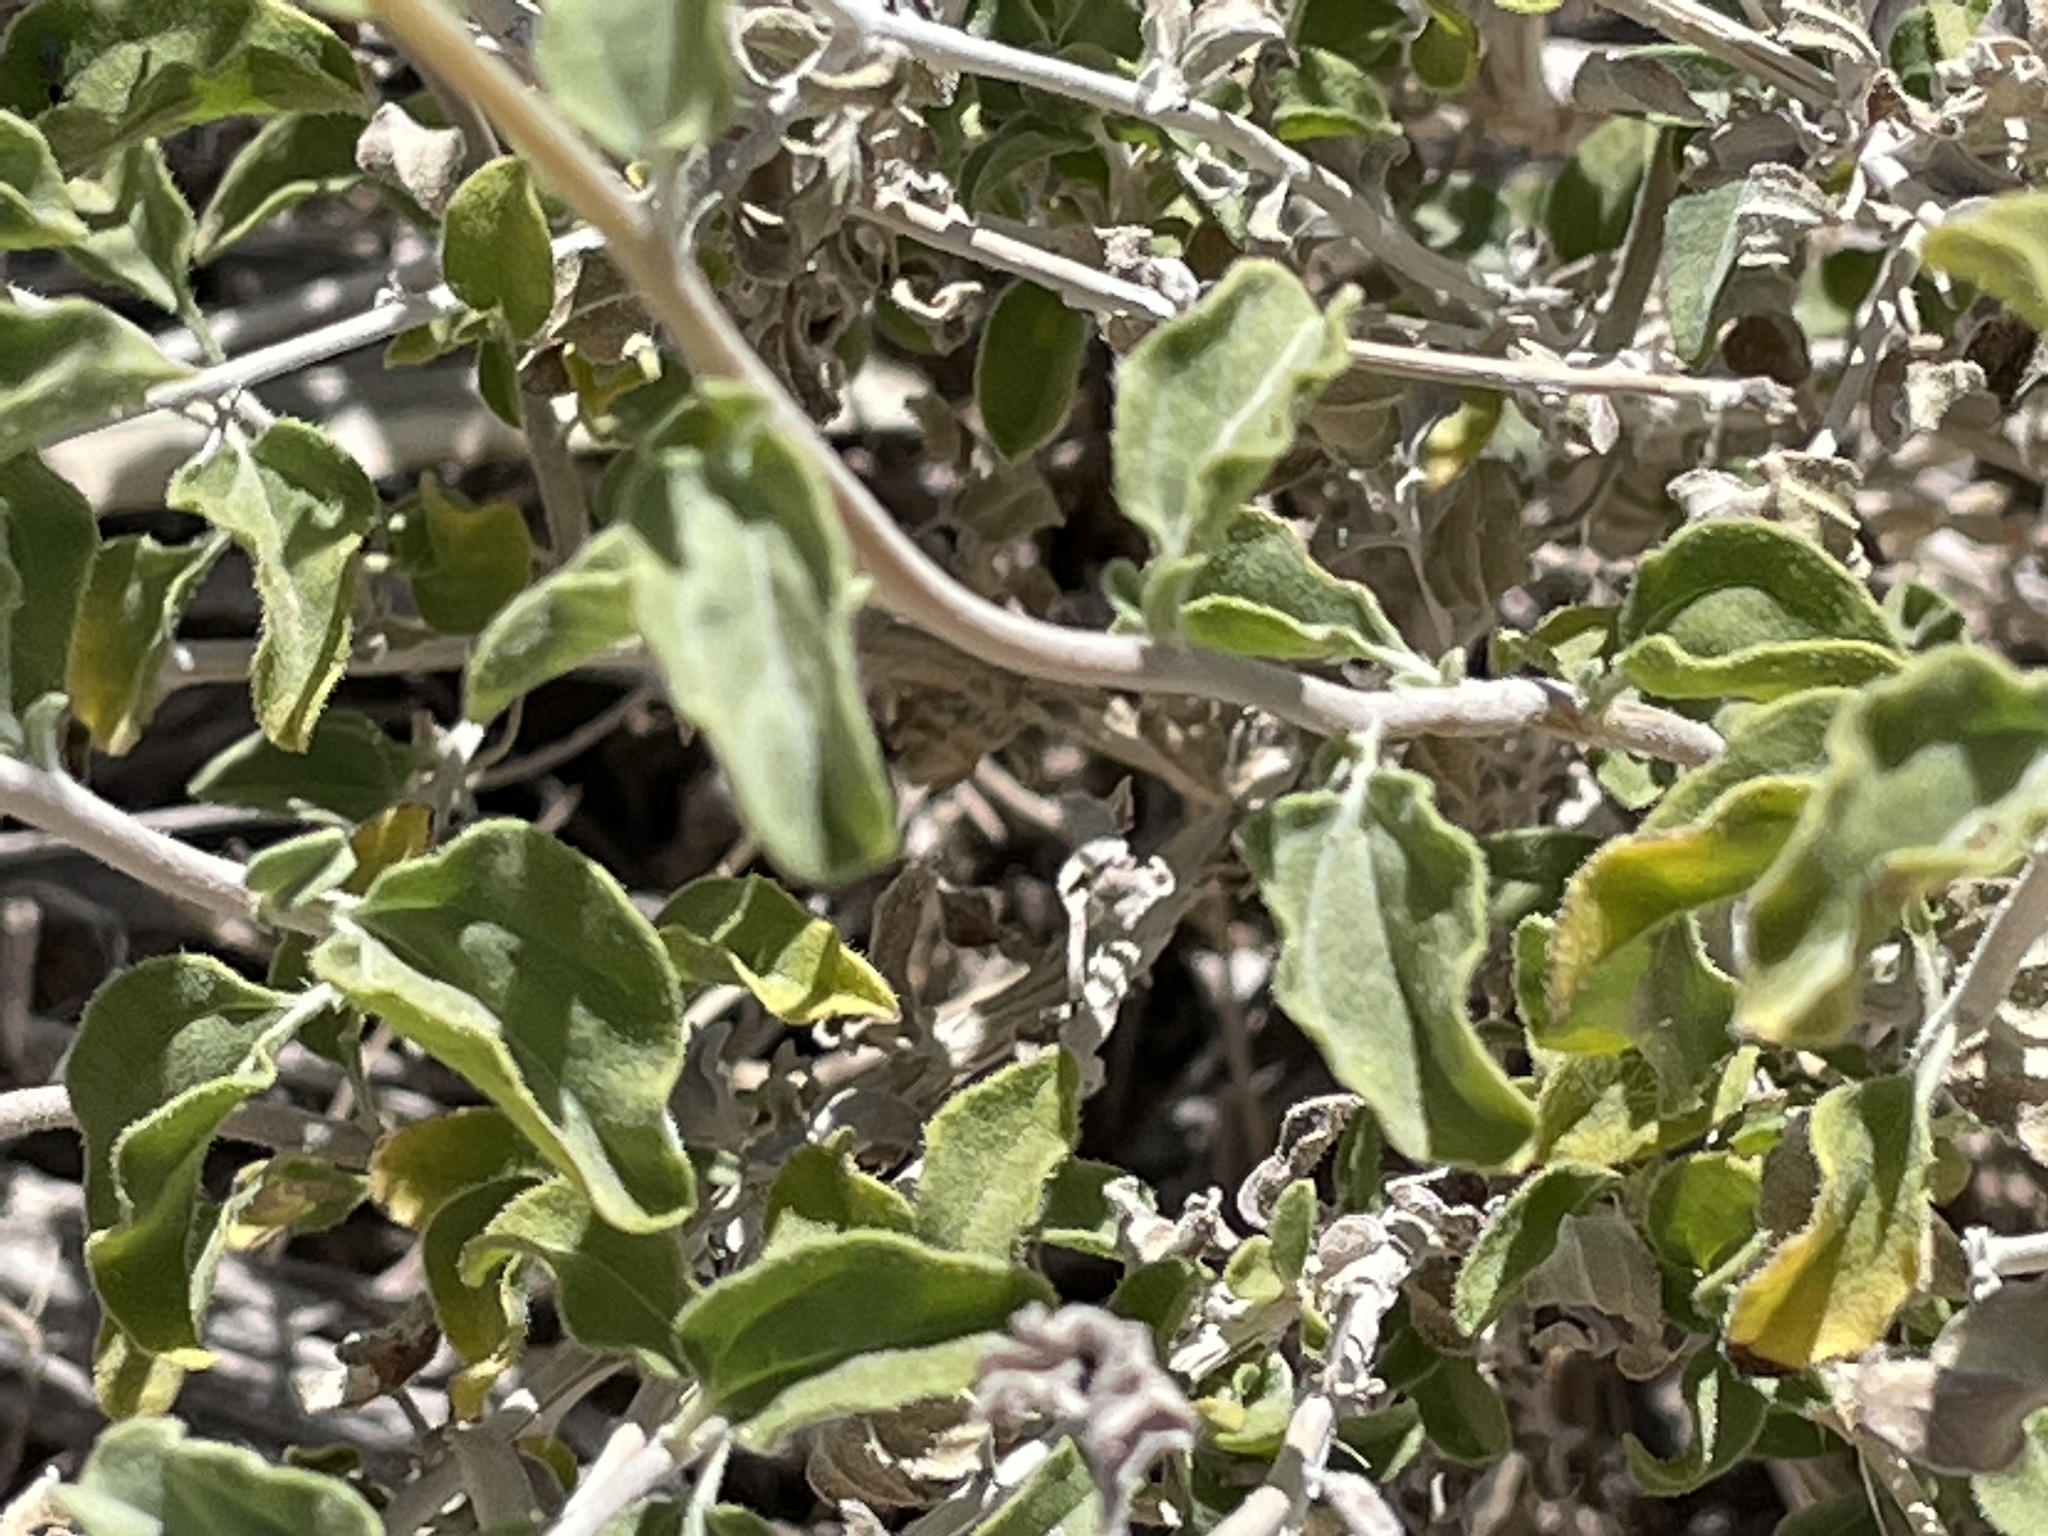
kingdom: Plantae
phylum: Tracheophyta
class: Magnoliopsida
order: Asterales
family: Asteraceae
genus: Encelia
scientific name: Encelia virginensis
